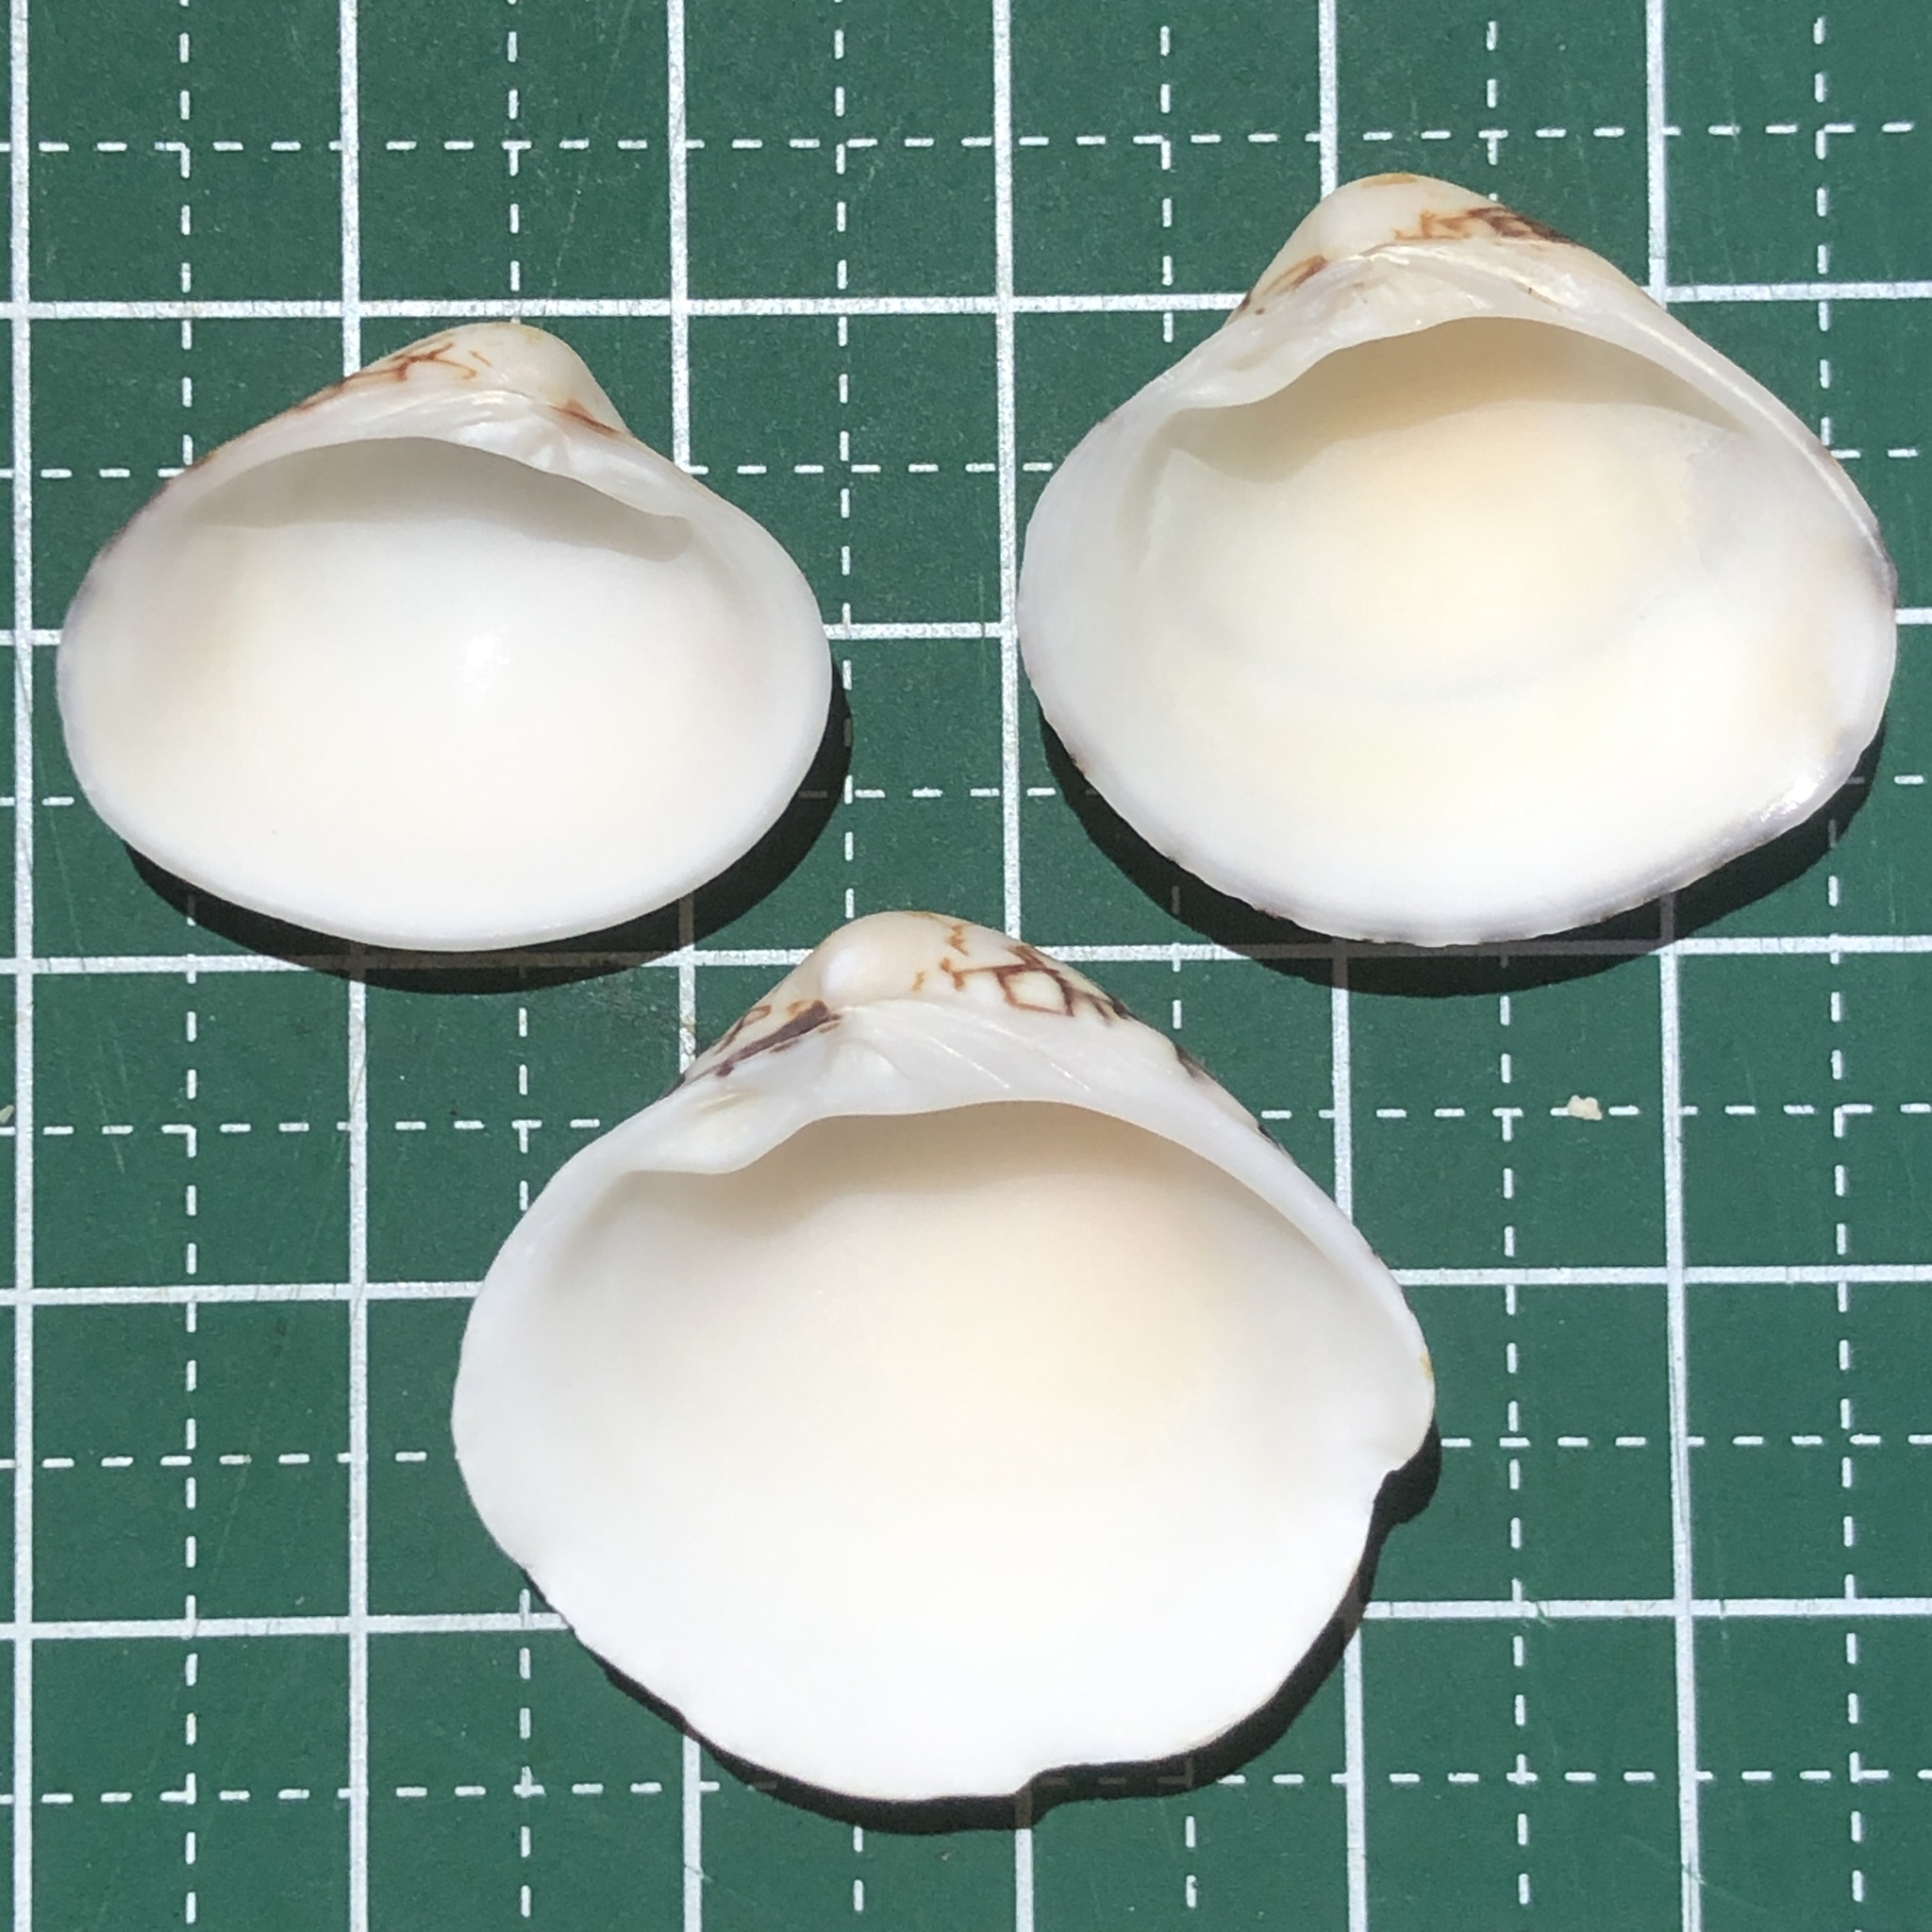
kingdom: Animalia
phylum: Mollusca
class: Bivalvia
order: Venerida
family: Veneridae
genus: Lioconcha
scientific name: Lioconcha fastigiata
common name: Clam
